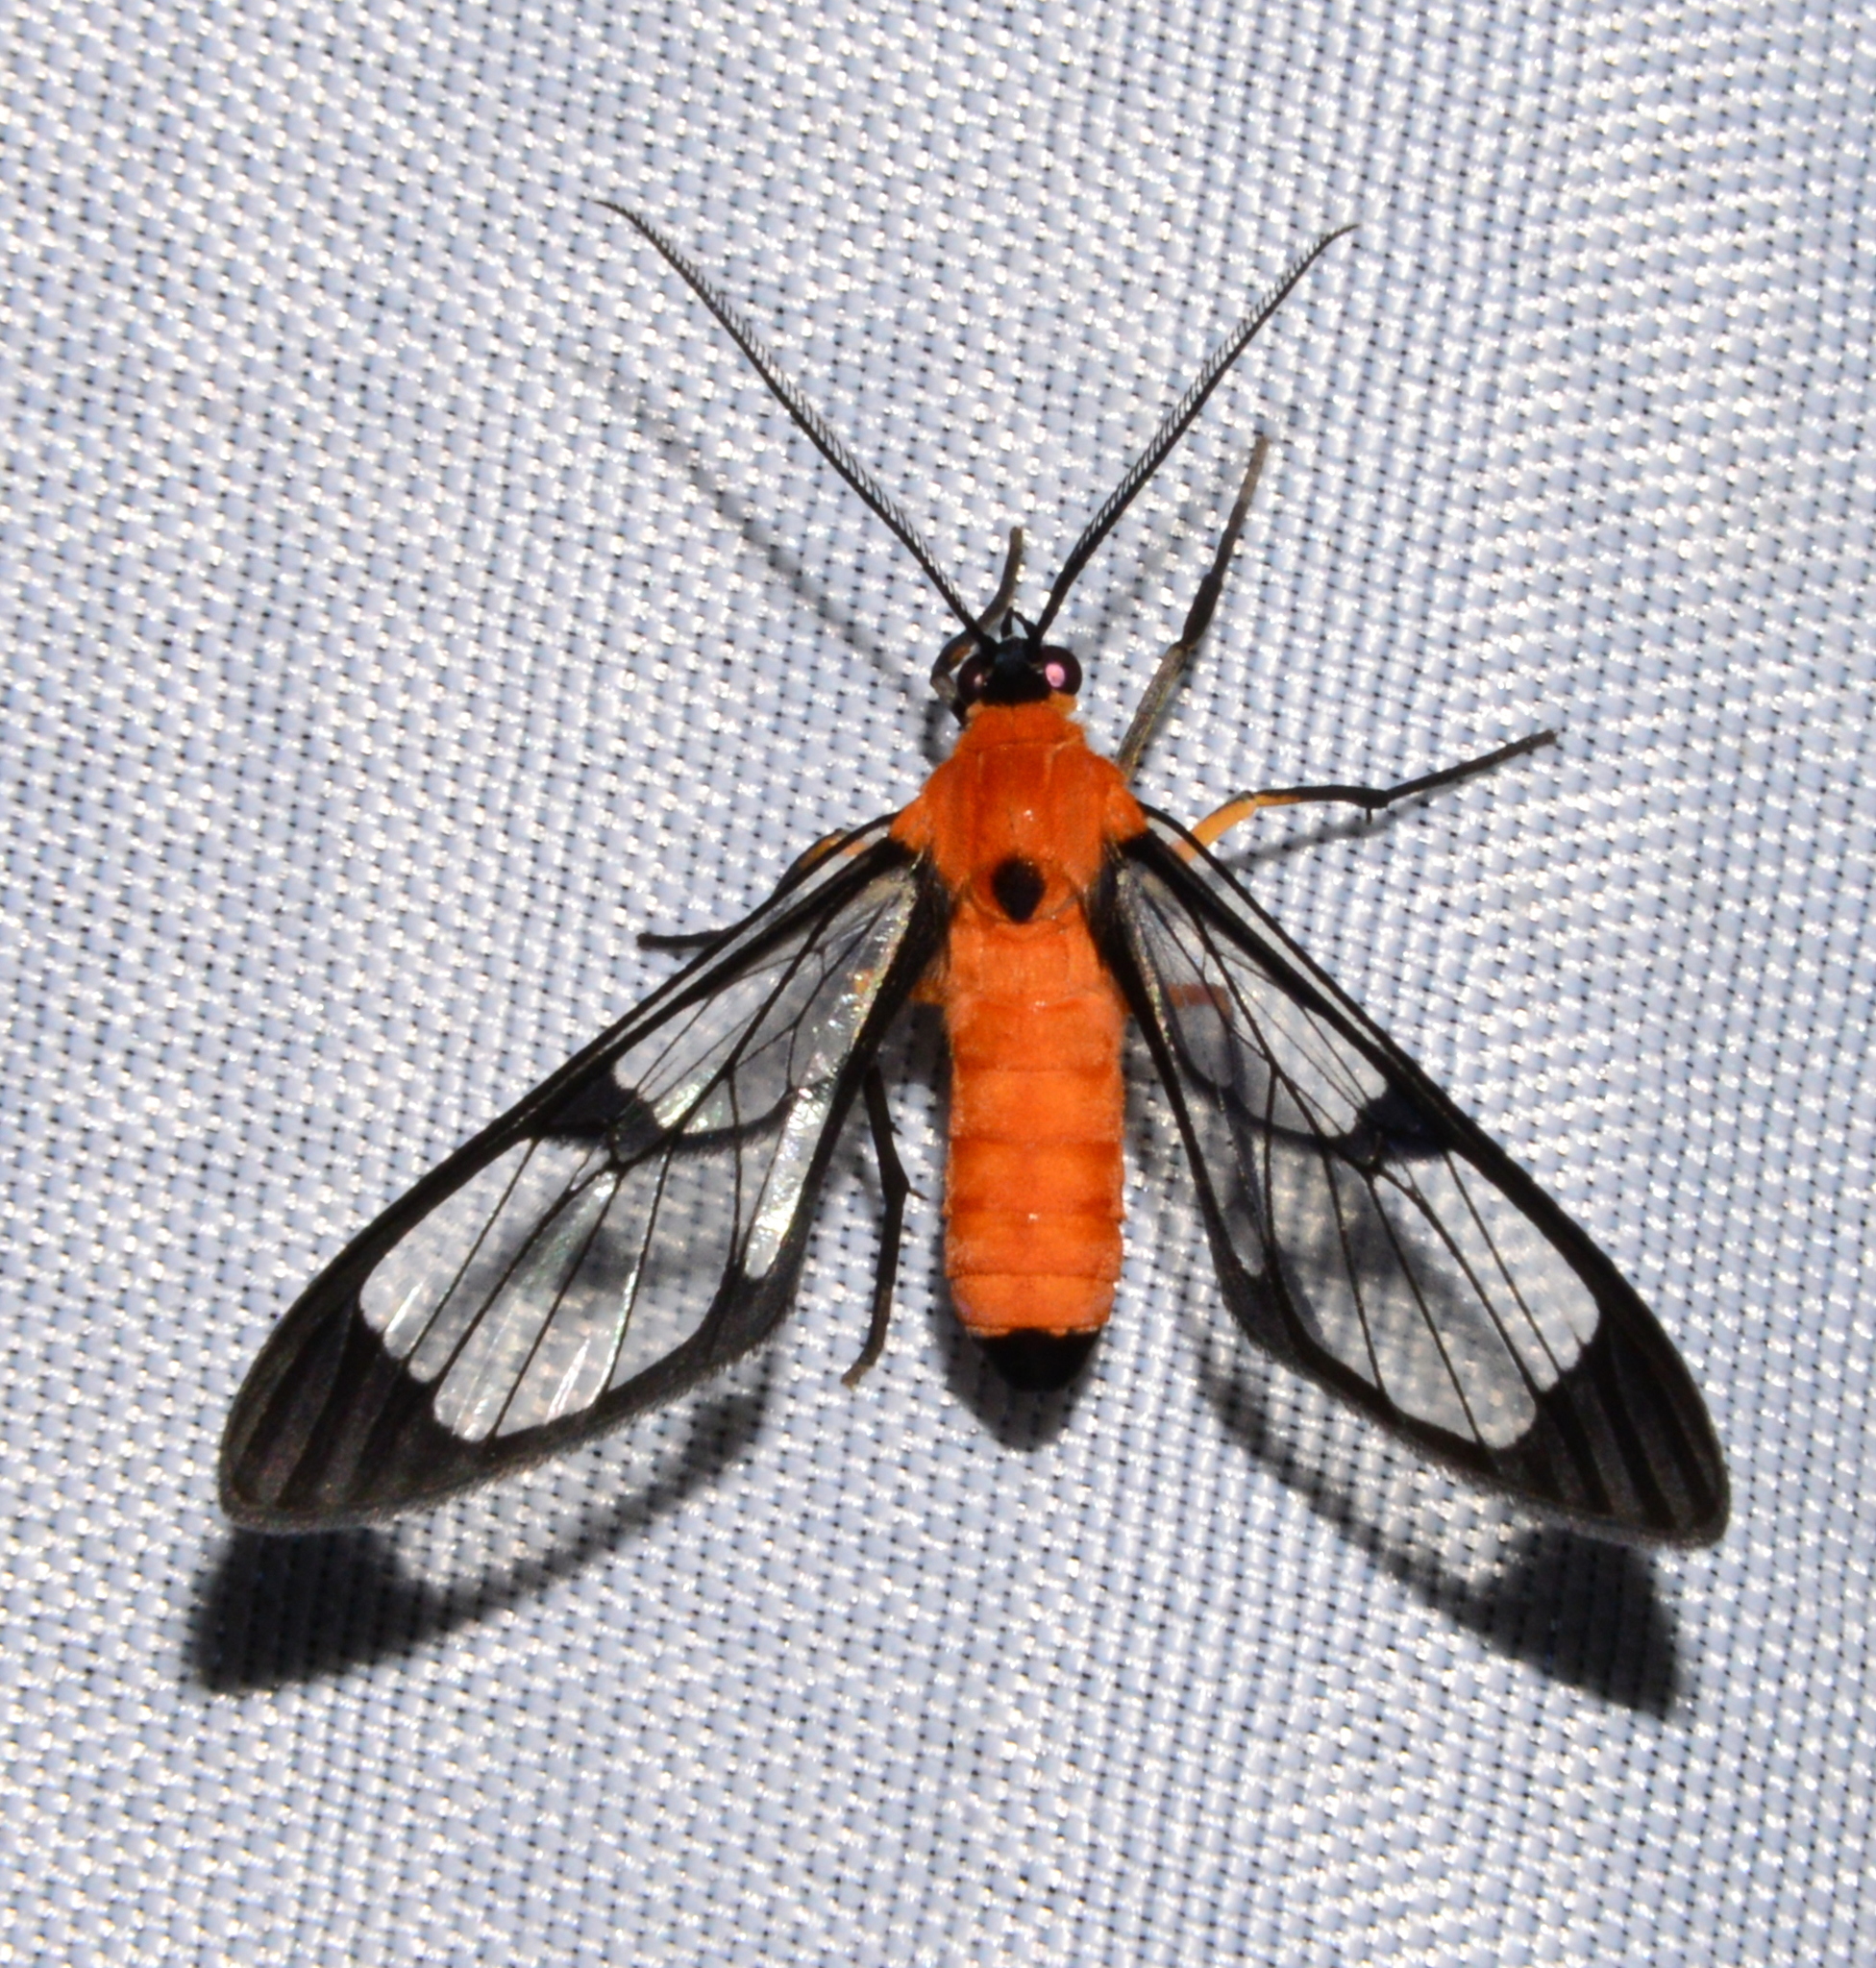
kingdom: Animalia
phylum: Arthropoda
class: Insecta
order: Lepidoptera
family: Erebidae
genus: Mesothen
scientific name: Mesothen bisexualis
